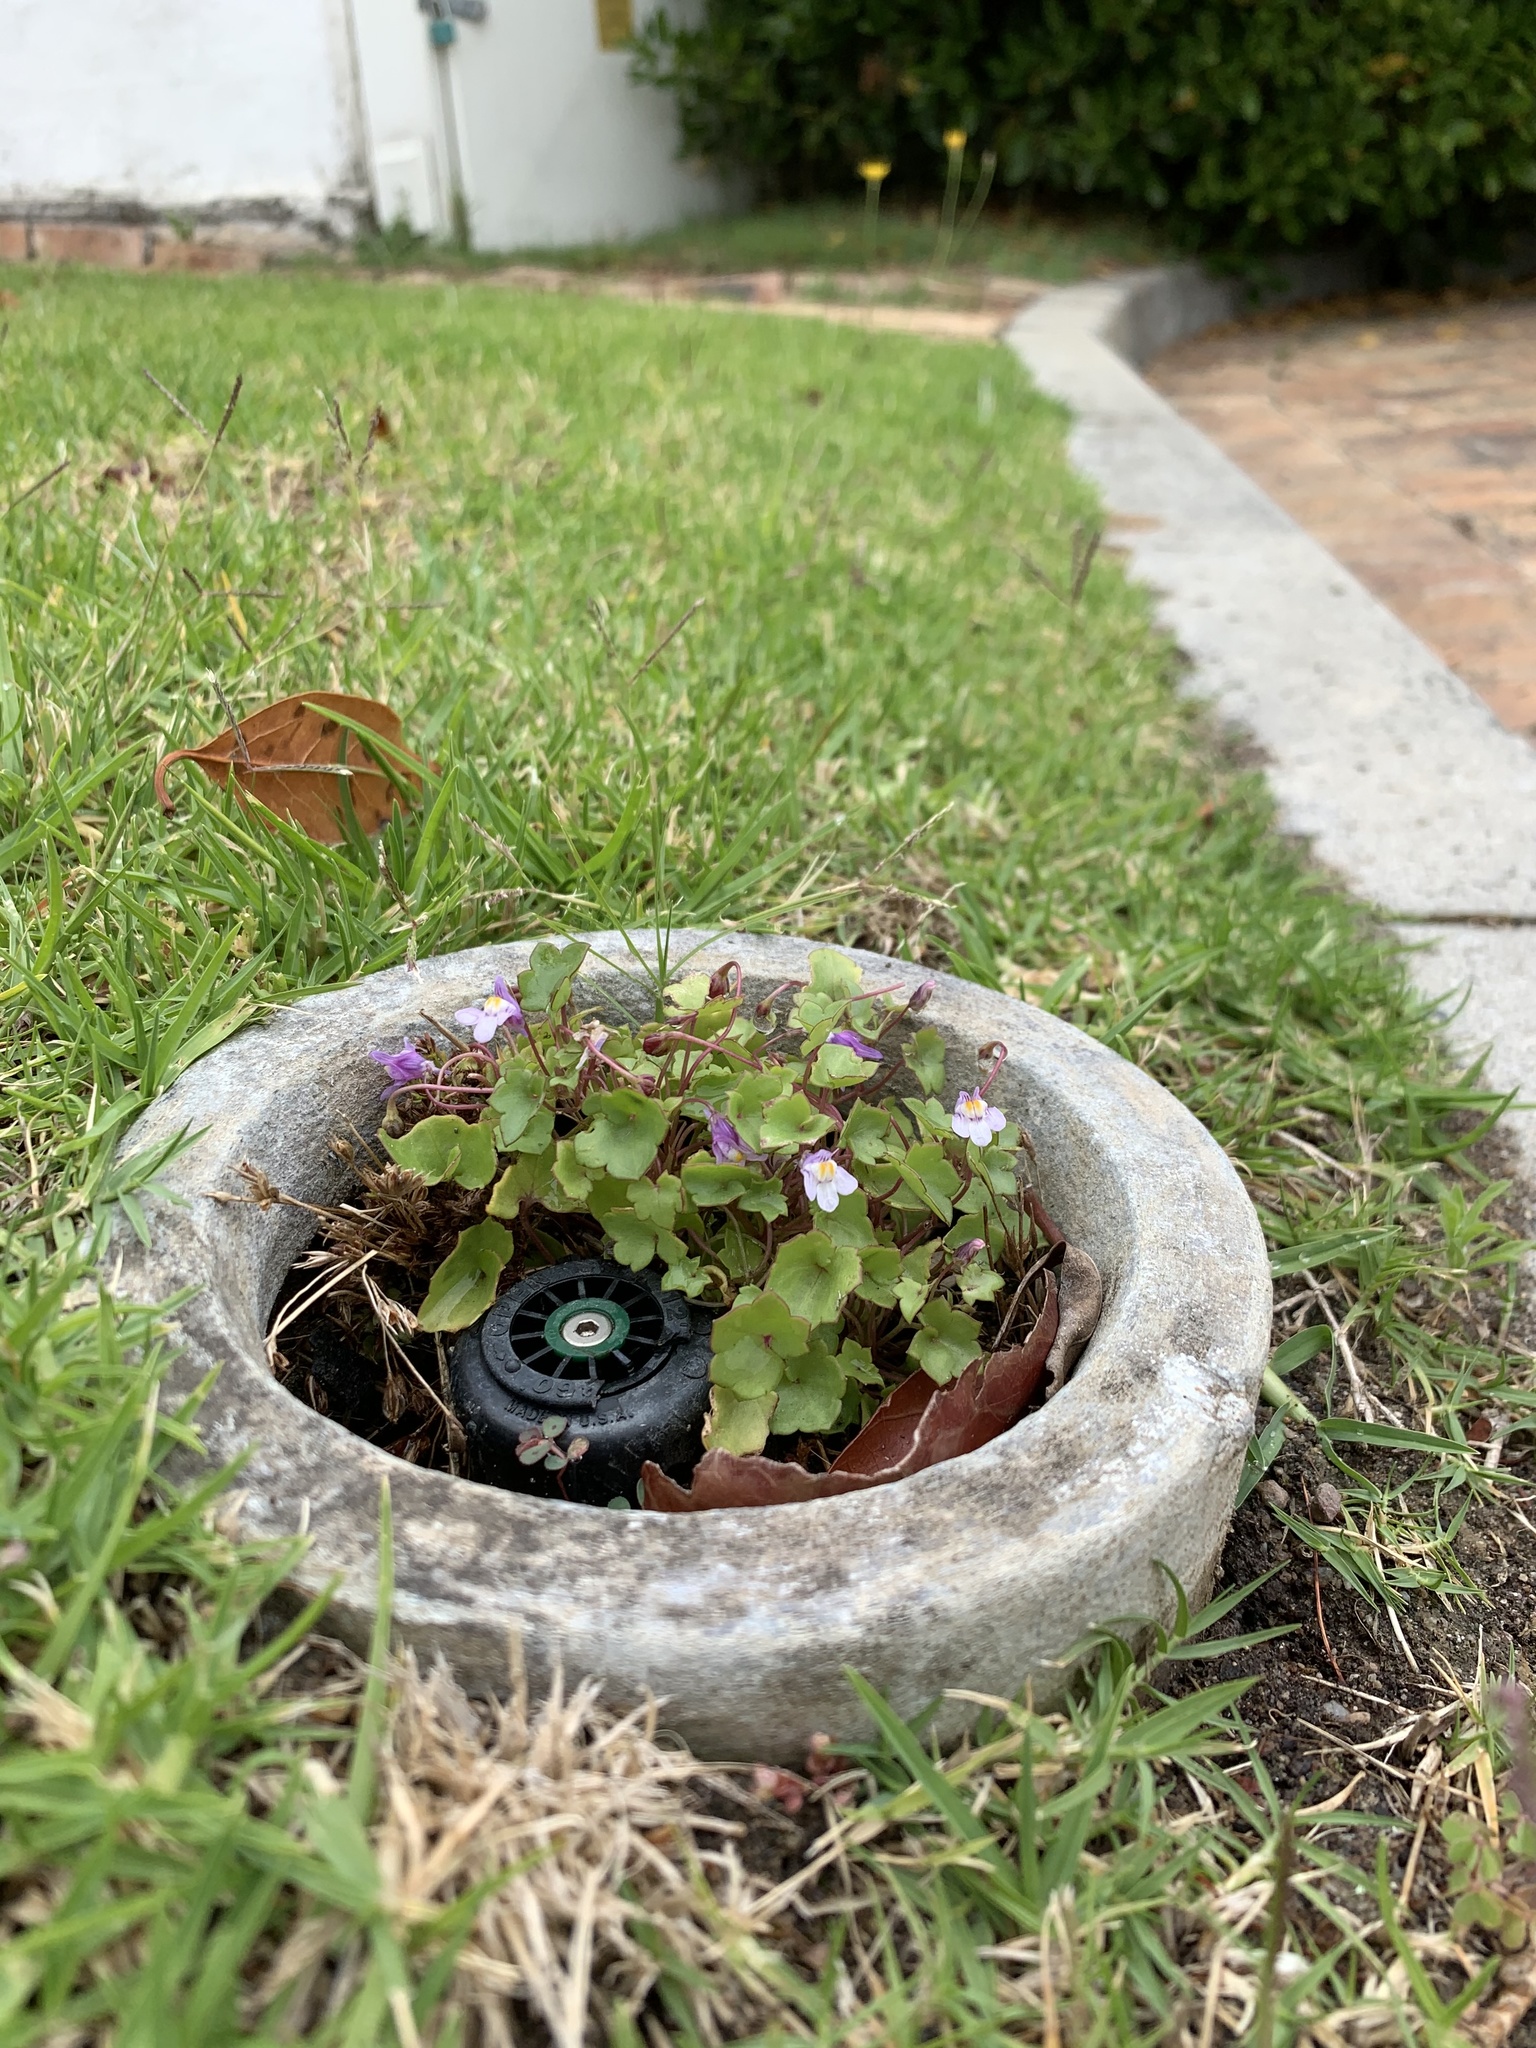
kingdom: Plantae
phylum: Tracheophyta
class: Magnoliopsida
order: Lamiales
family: Plantaginaceae
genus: Cymbalaria
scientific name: Cymbalaria muralis
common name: Ivy-leaved toadflax
